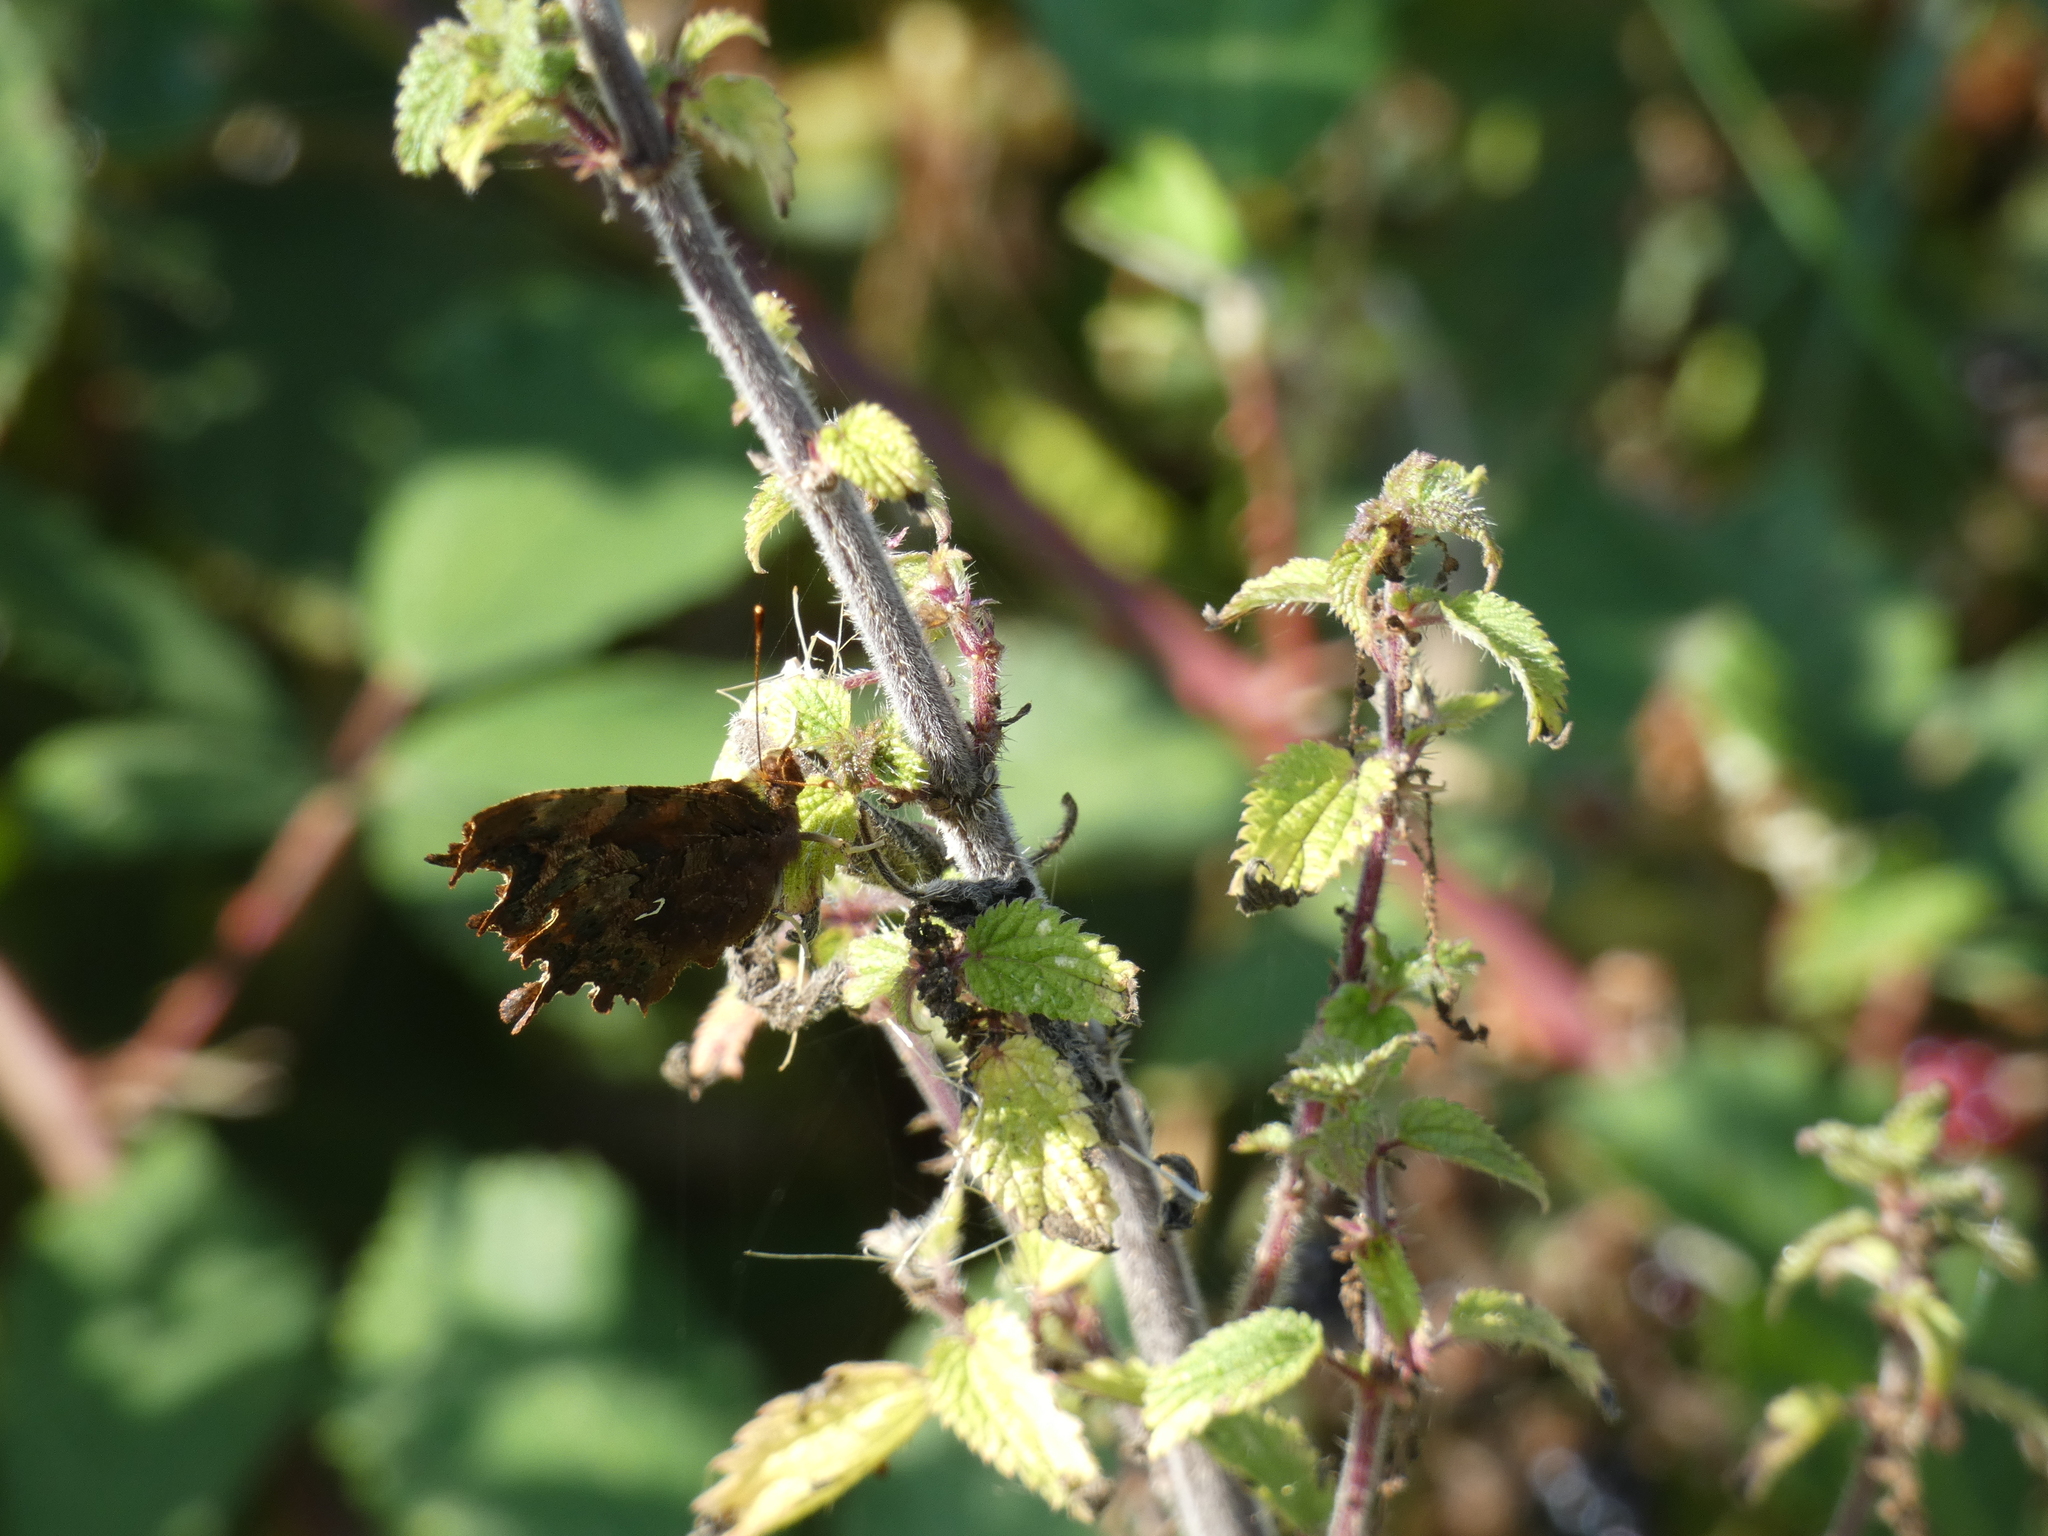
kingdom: Animalia
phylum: Arthropoda
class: Insecta
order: Lepidoptera
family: Nymphalidae
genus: Polygonia
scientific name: Polygonia c-album
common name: Comma
